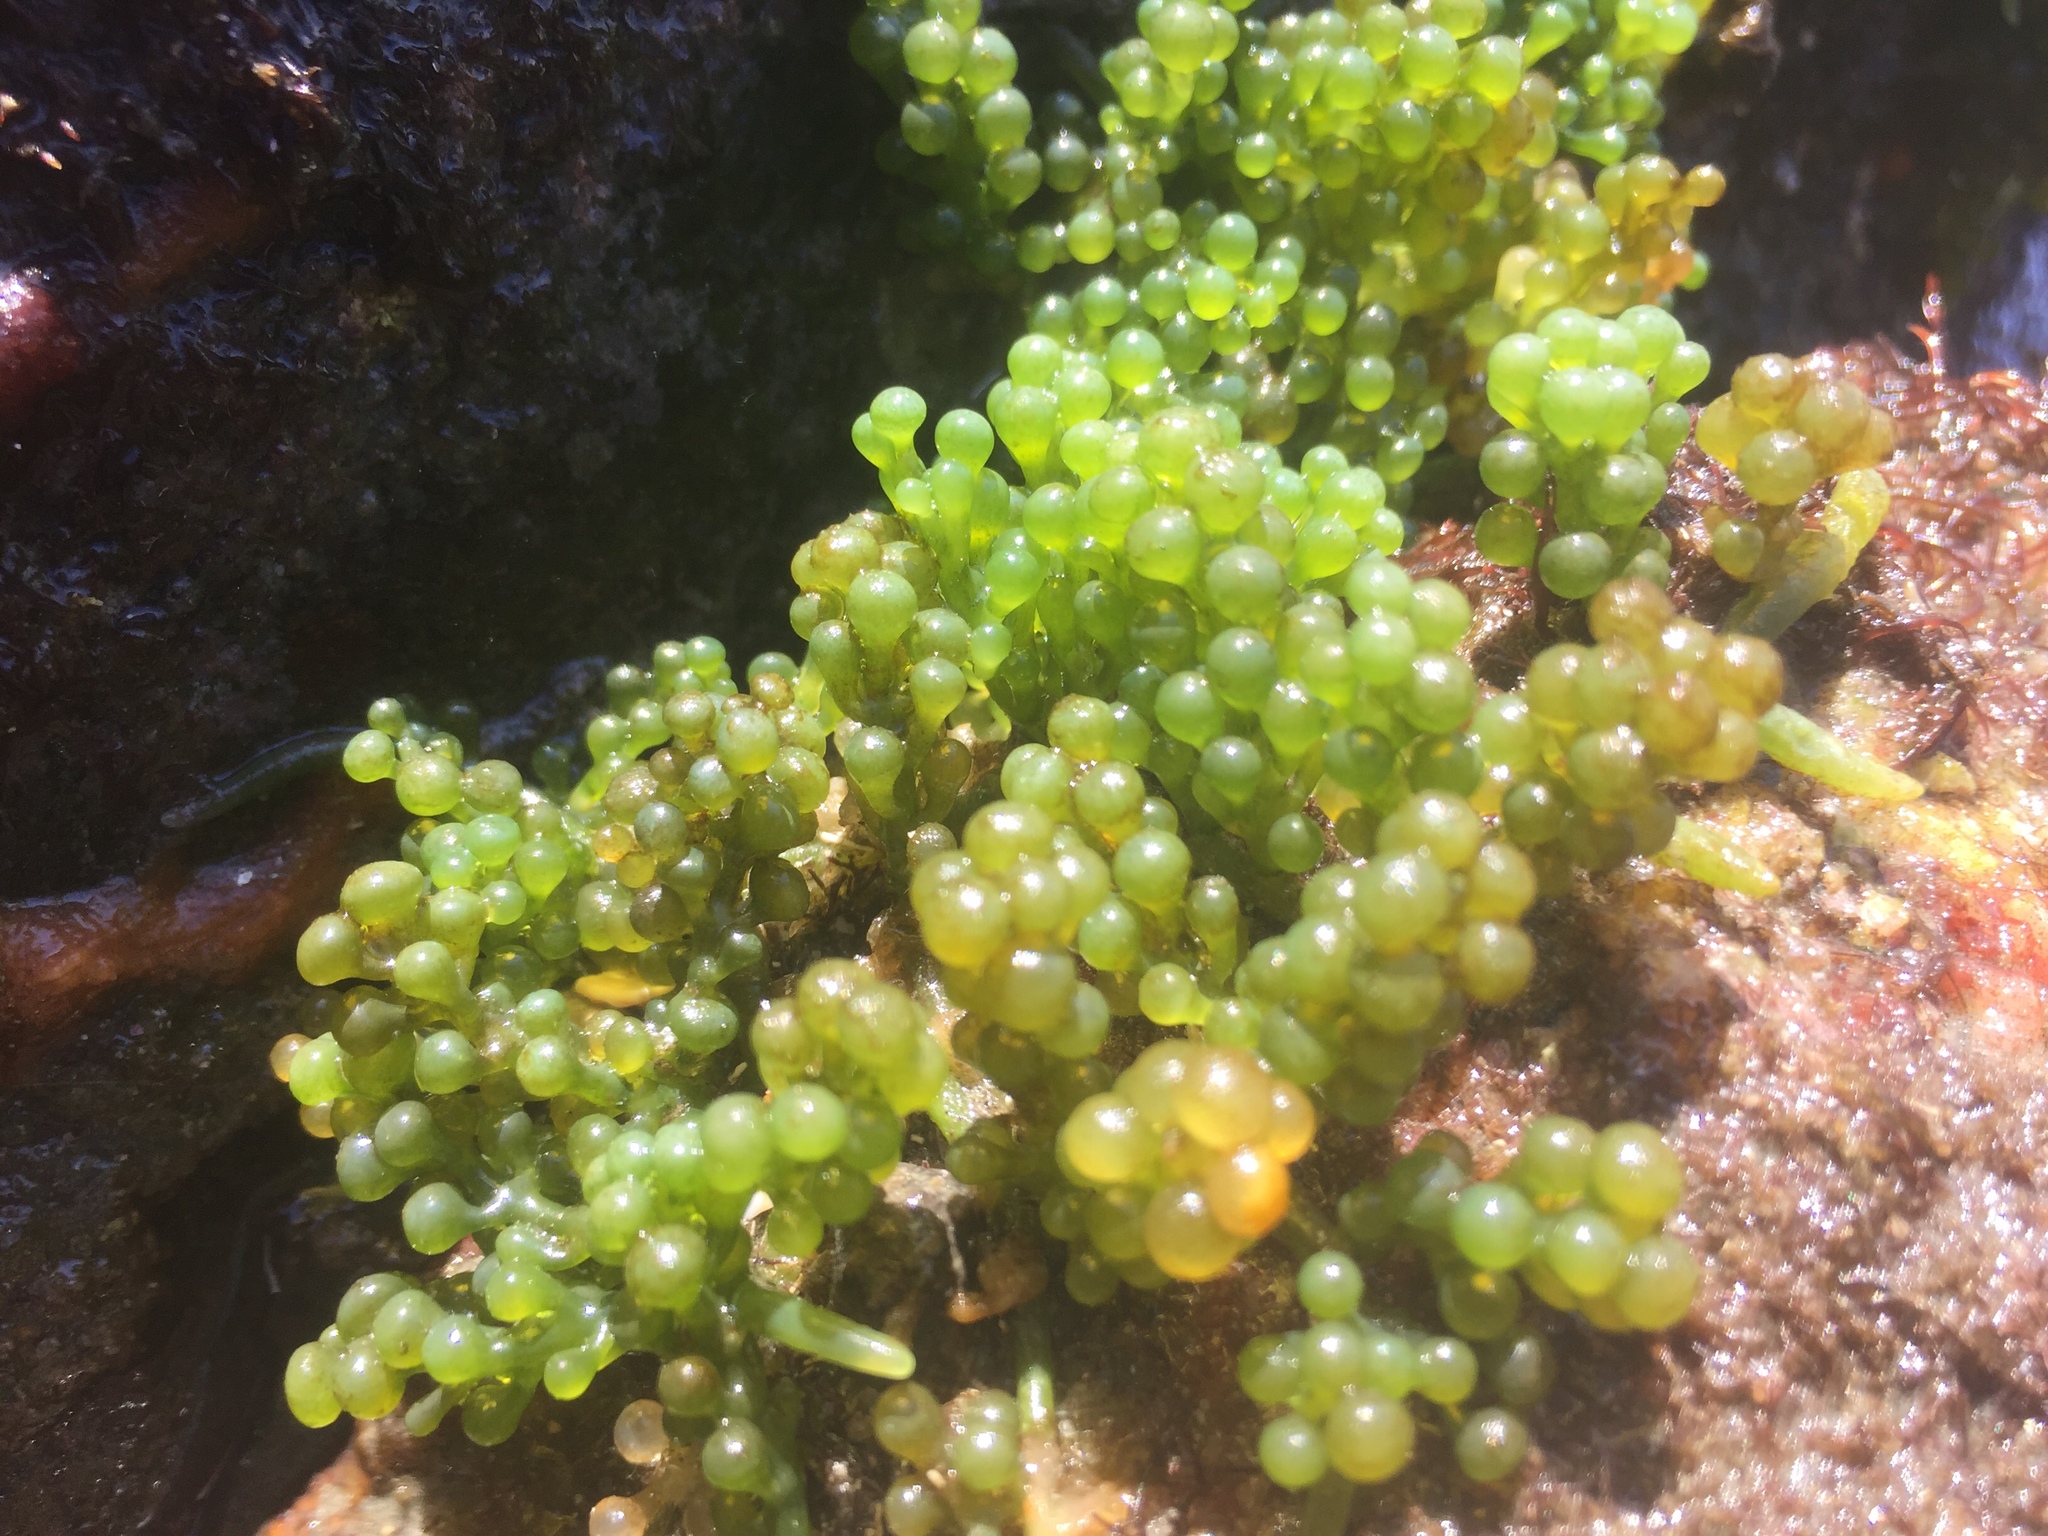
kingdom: Plantae
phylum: Chlorophyta
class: Ulvophyceae
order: Bryopsidales
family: Caulerpaceae
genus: Caulerpa
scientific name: Caulerpa racemosa
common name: Green grape algae
